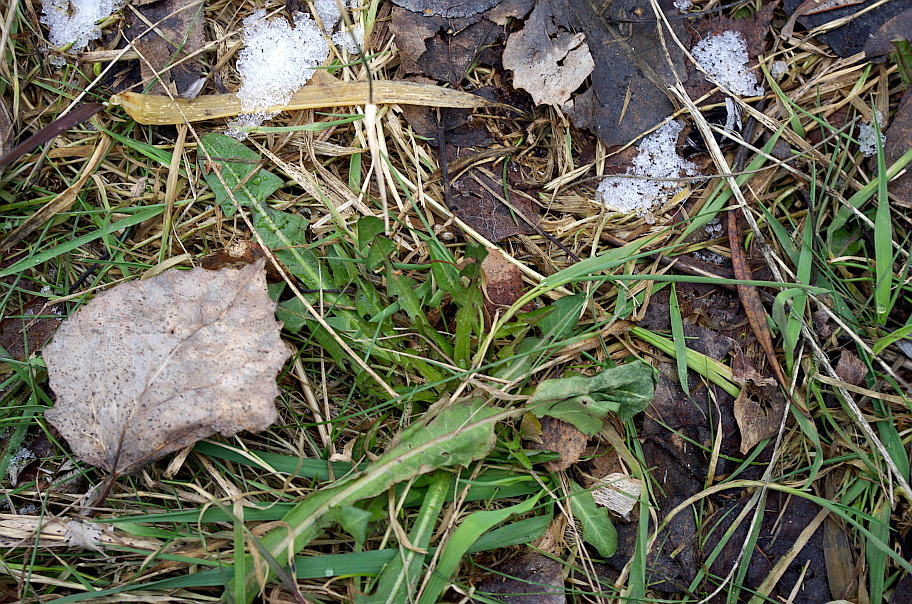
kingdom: Plantae
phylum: Tracheophyta
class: Magnoliopsida
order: Asterales
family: Asteraceae
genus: Taraxacum
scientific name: Taraxacum officinale
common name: Common dandelion
